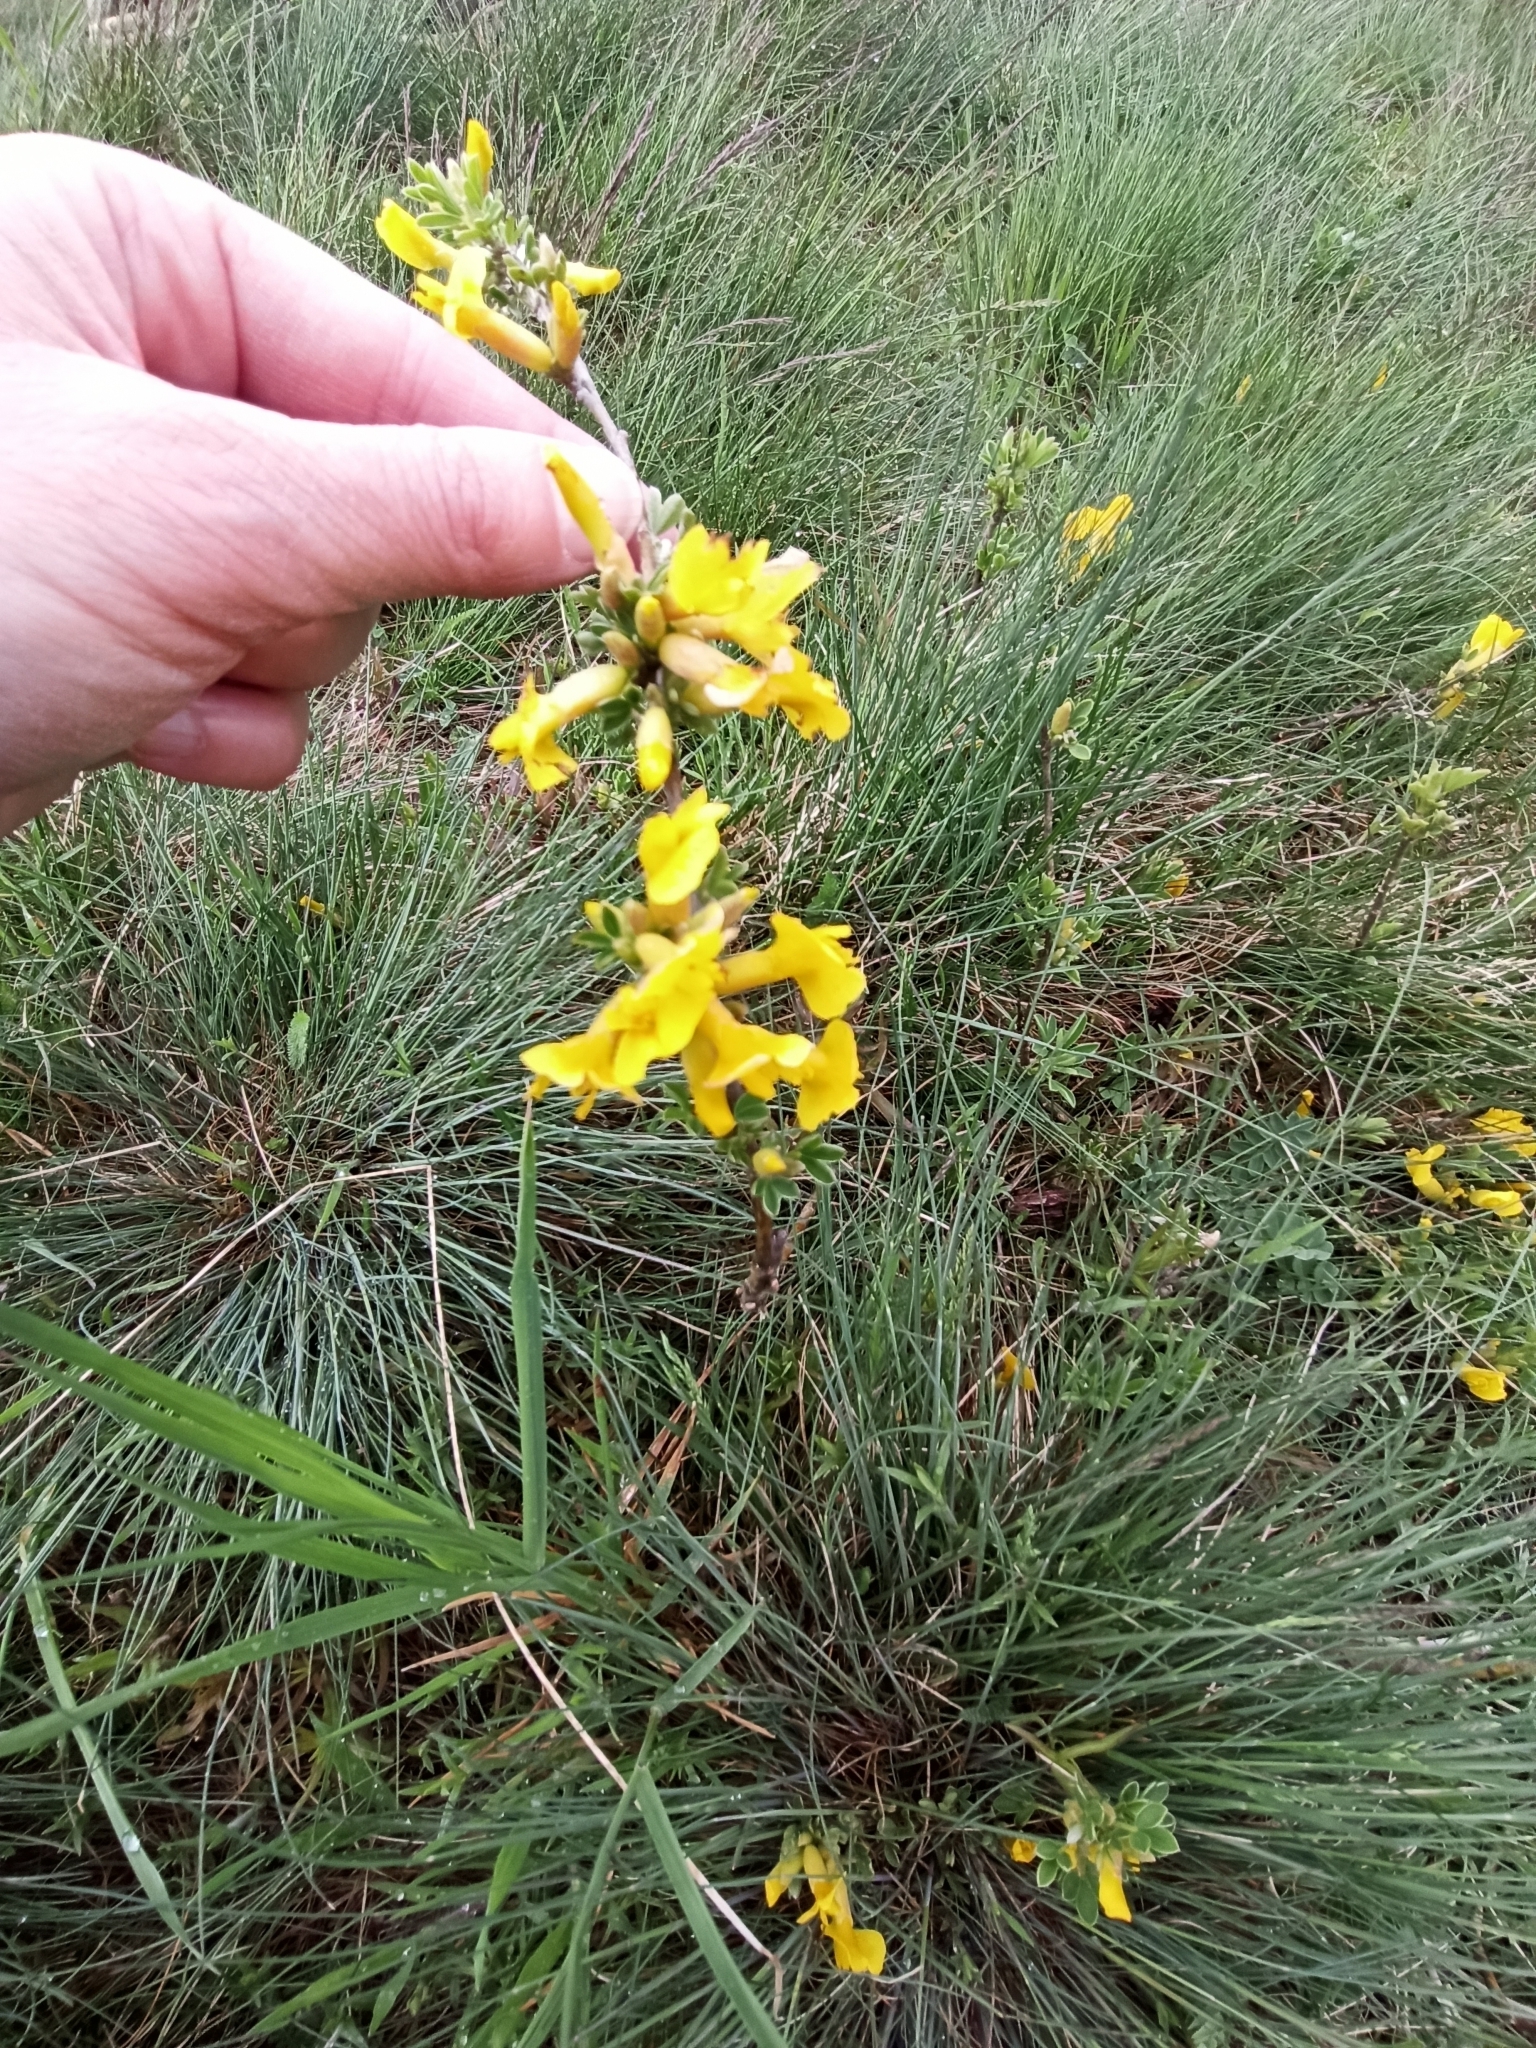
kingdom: Plantae
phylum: Tracheophyta
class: Magnoliopsida
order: Fabales
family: Fabaceae
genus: Chamaecytisus
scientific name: Chamaecytisus ratisbonensis
